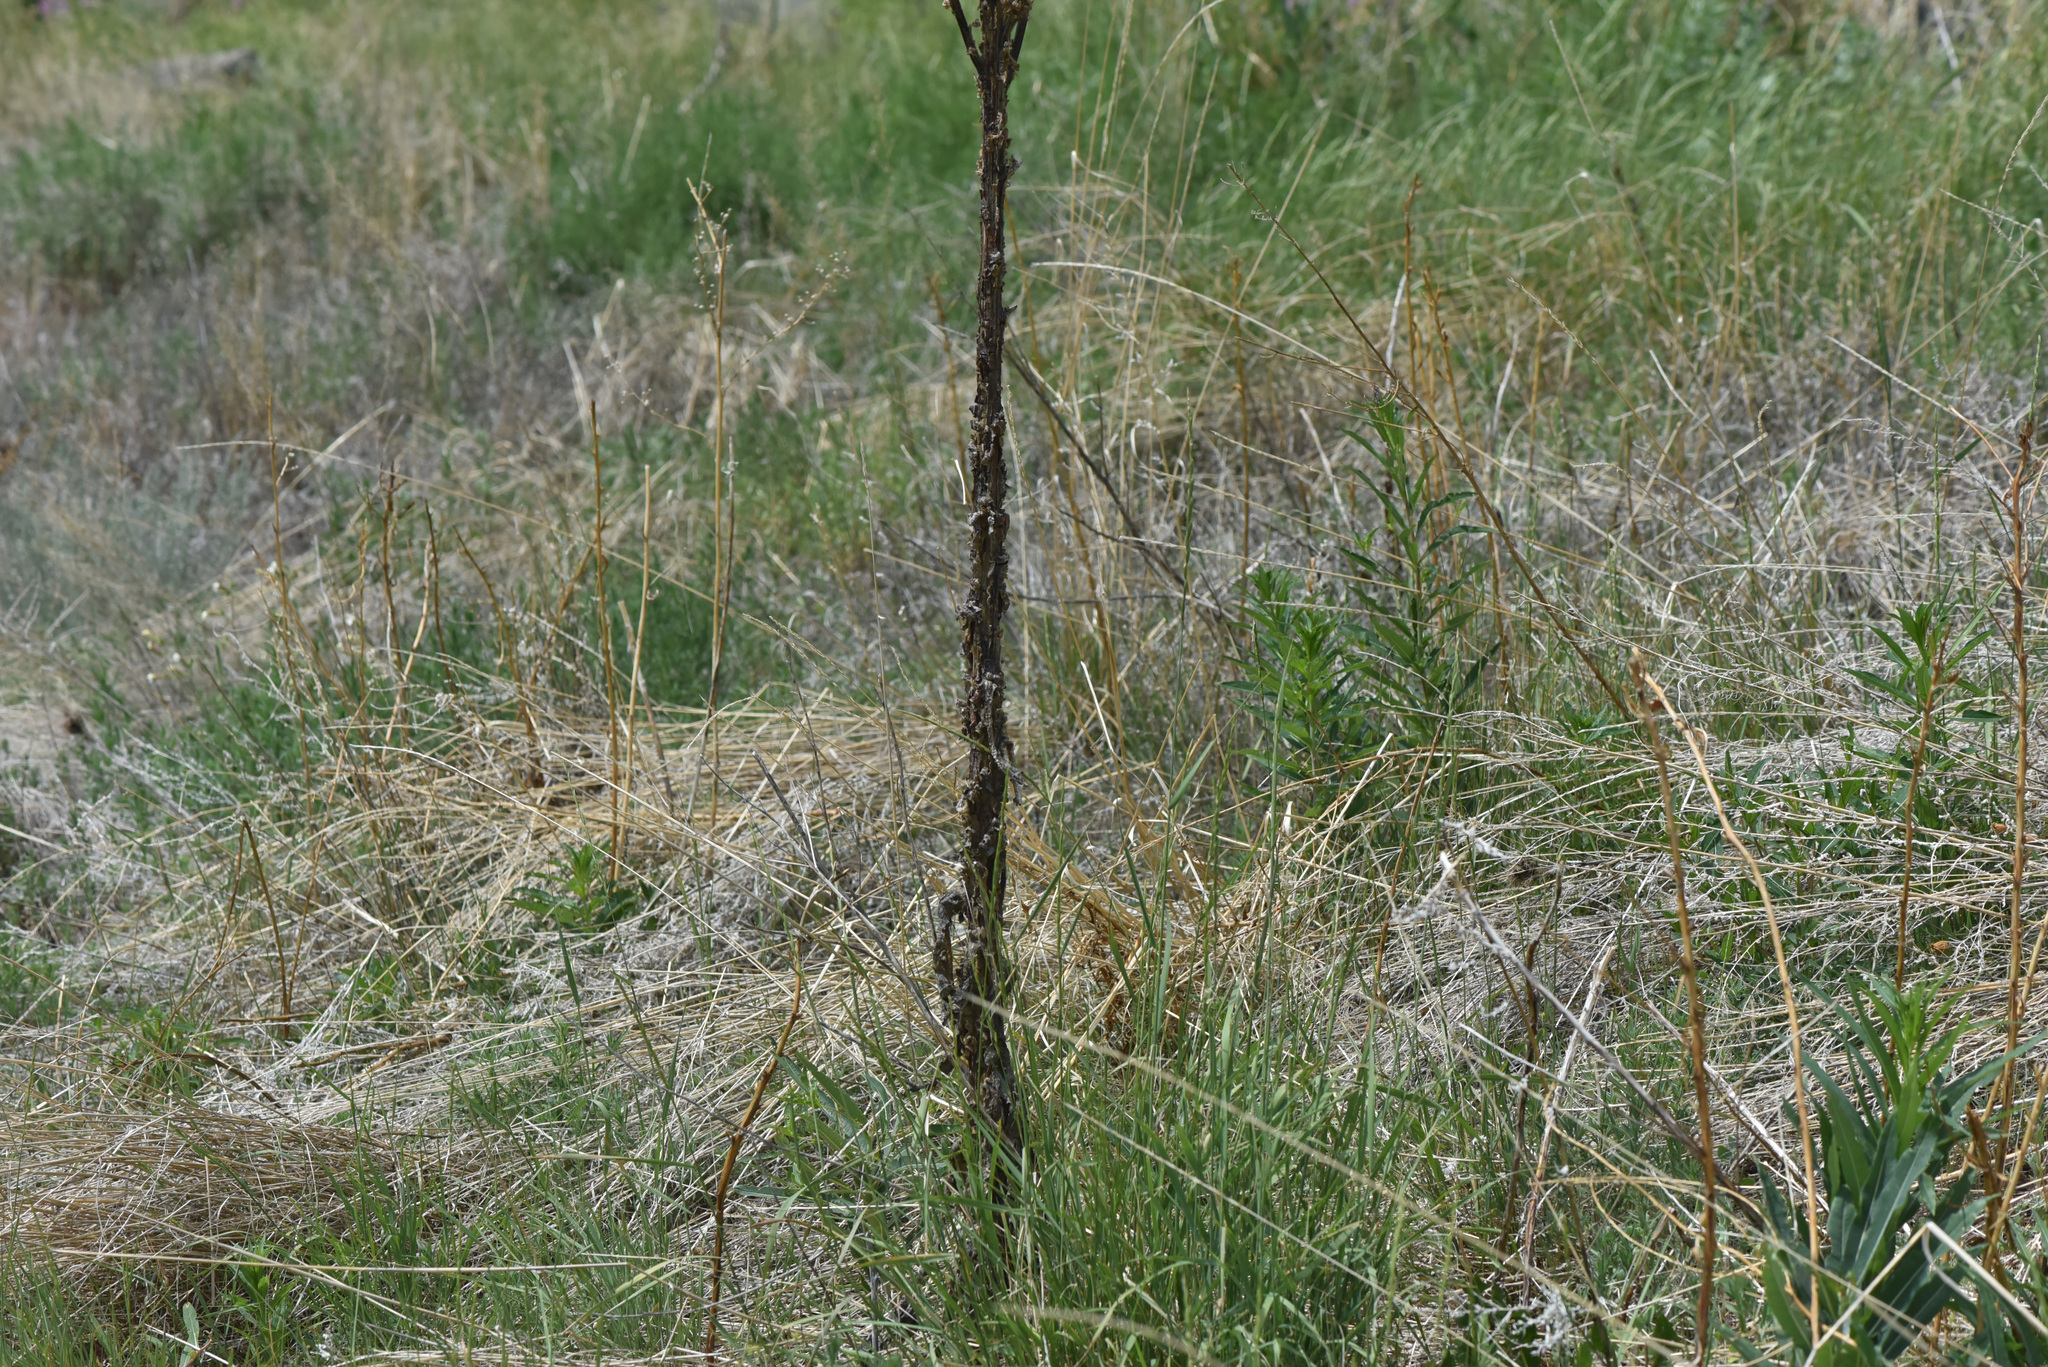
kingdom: Plantae
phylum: Tracheophyta
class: Magnoliopsida
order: Lamiales
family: Scrophulariaceae
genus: Verbascum
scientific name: Verbascum thapsus
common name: Common mullein
